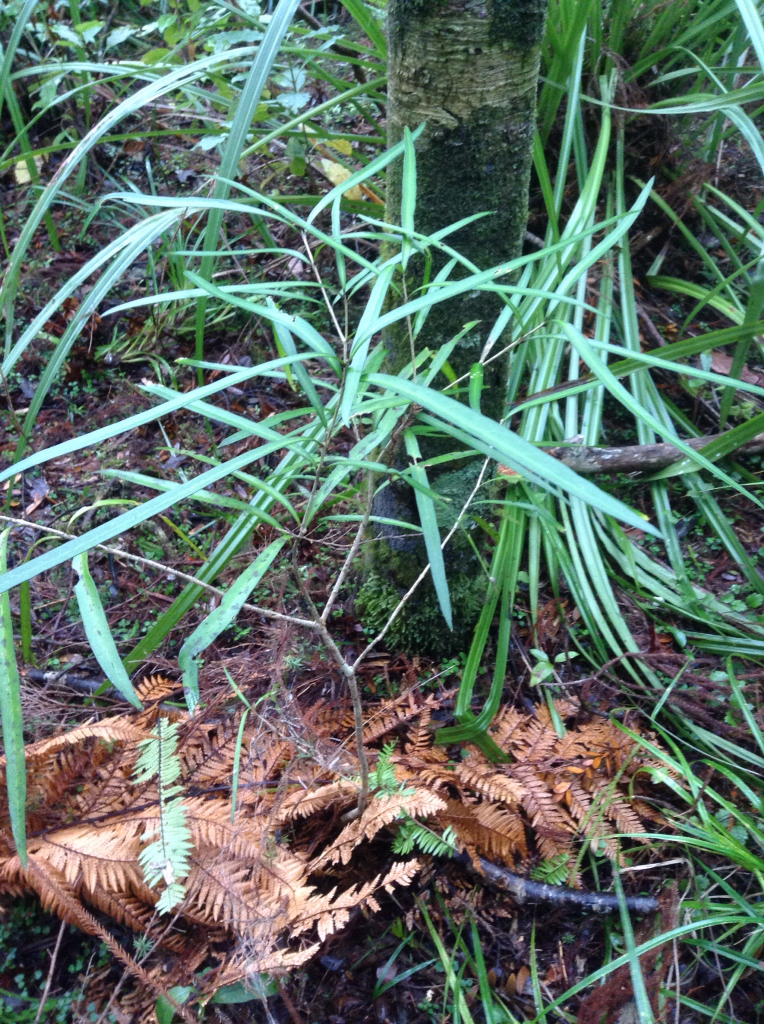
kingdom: Plantae
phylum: Tracheophyta
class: Magnoliopsida
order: Lamiales
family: Oleaceae
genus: Nestegis
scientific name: Nestegis lanceolata
